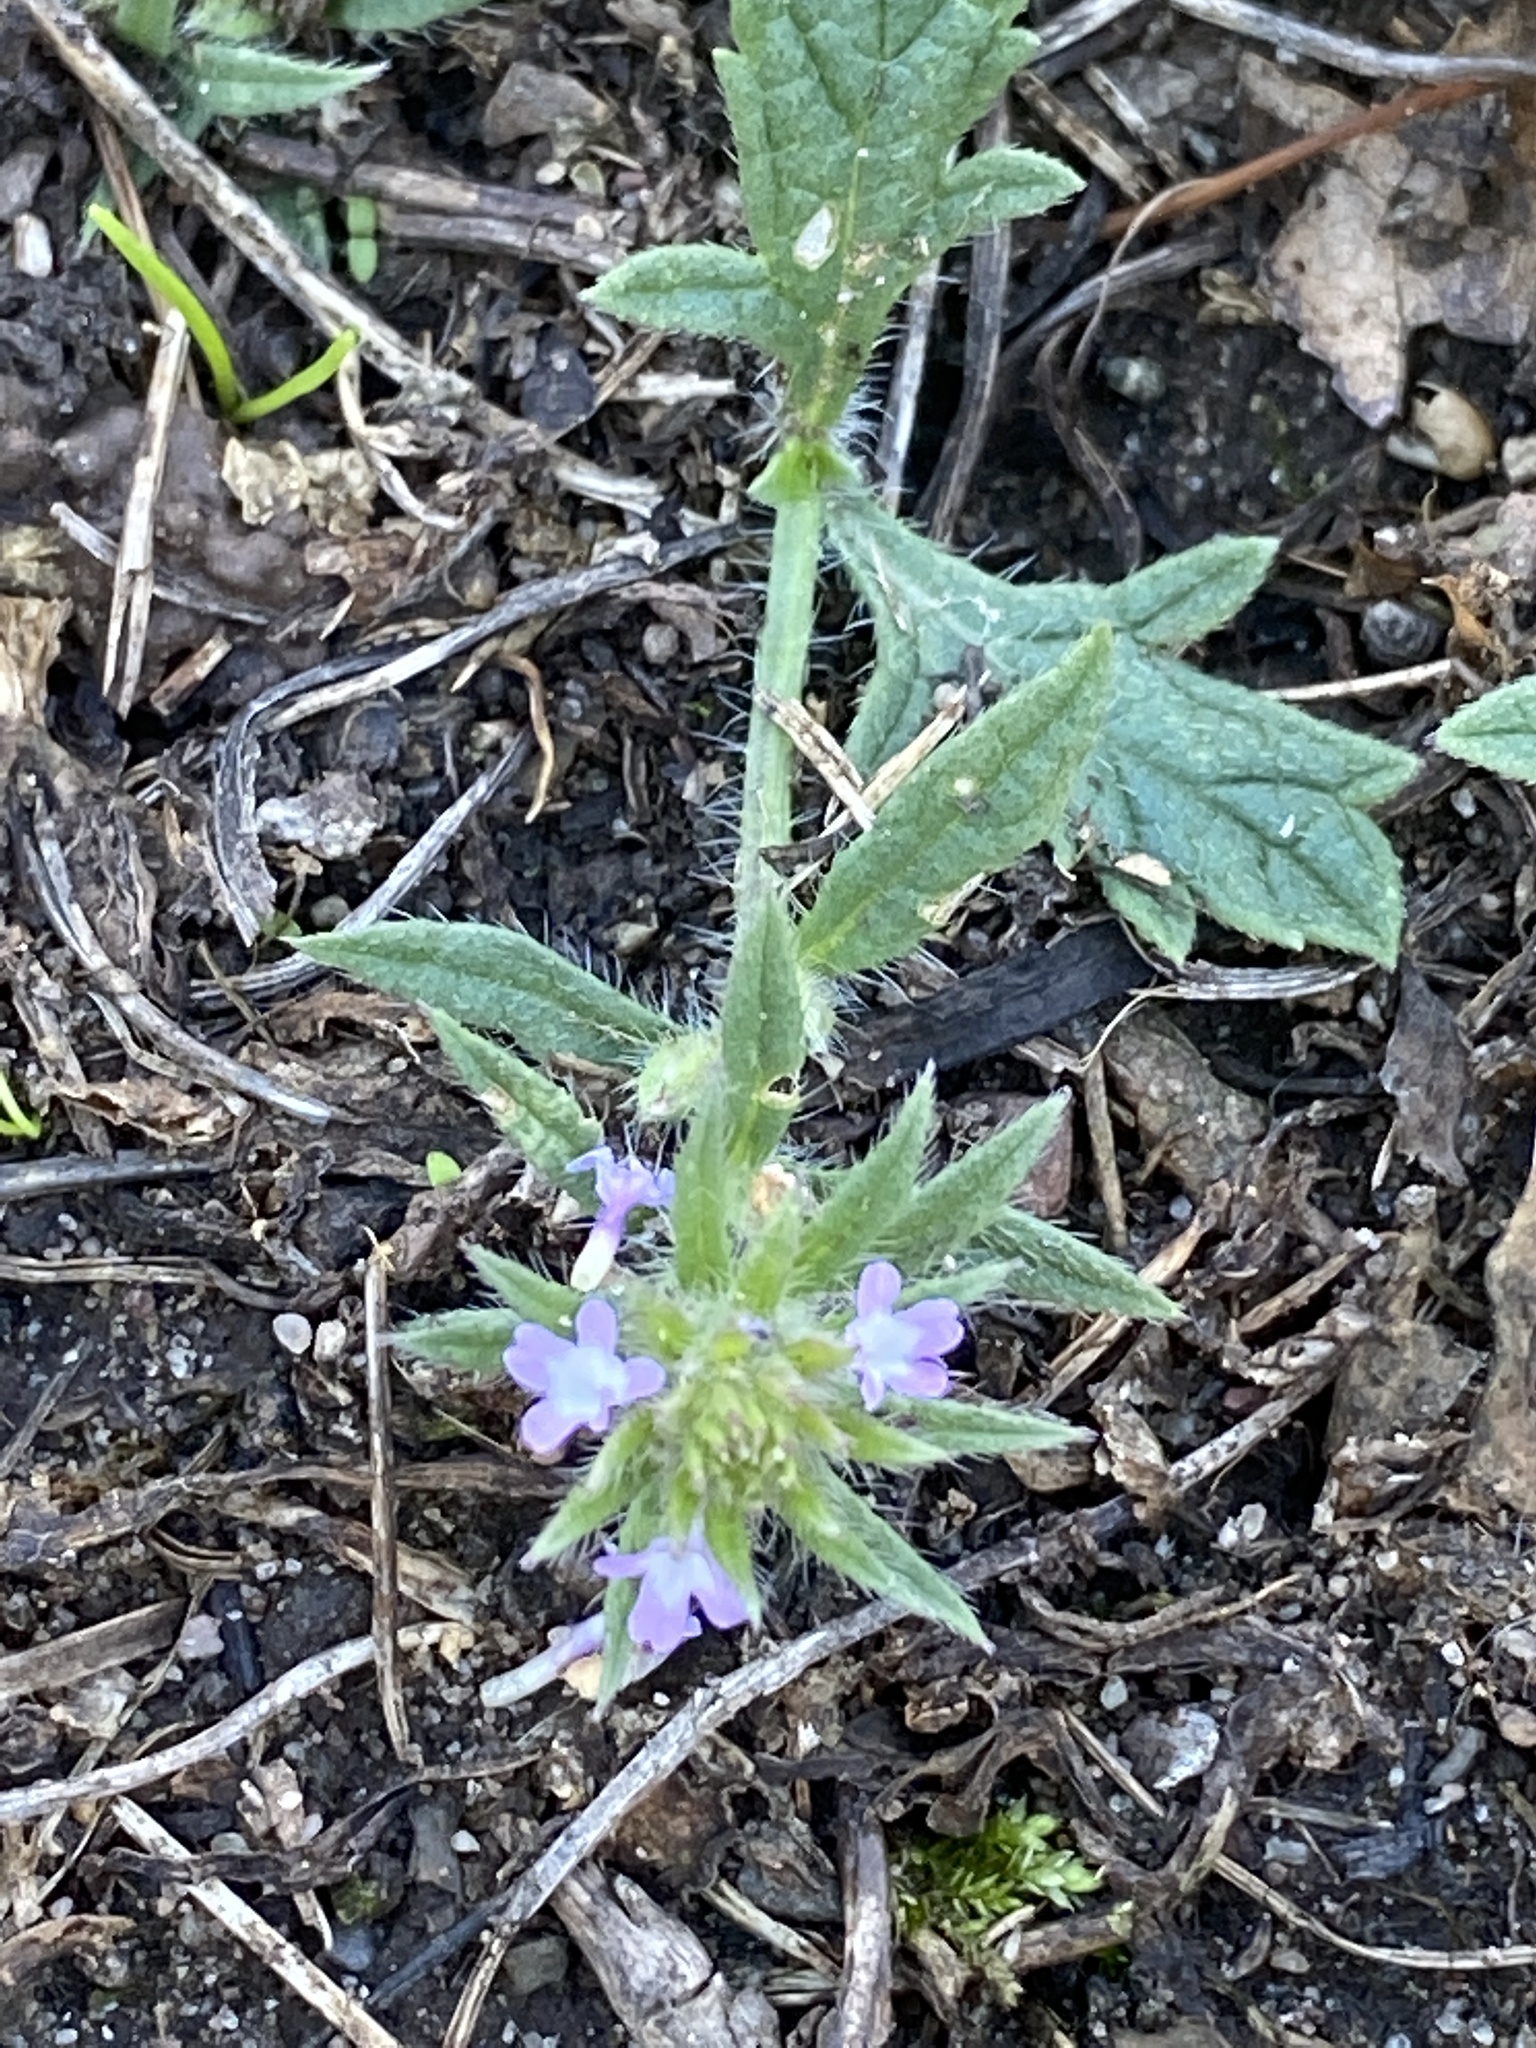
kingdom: Plantae
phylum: Tracheophyta
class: Magnoliopsida
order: Lamiales
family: Verbenaceae
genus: Verbena
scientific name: Verbena bracteata
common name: Bracted vervain
